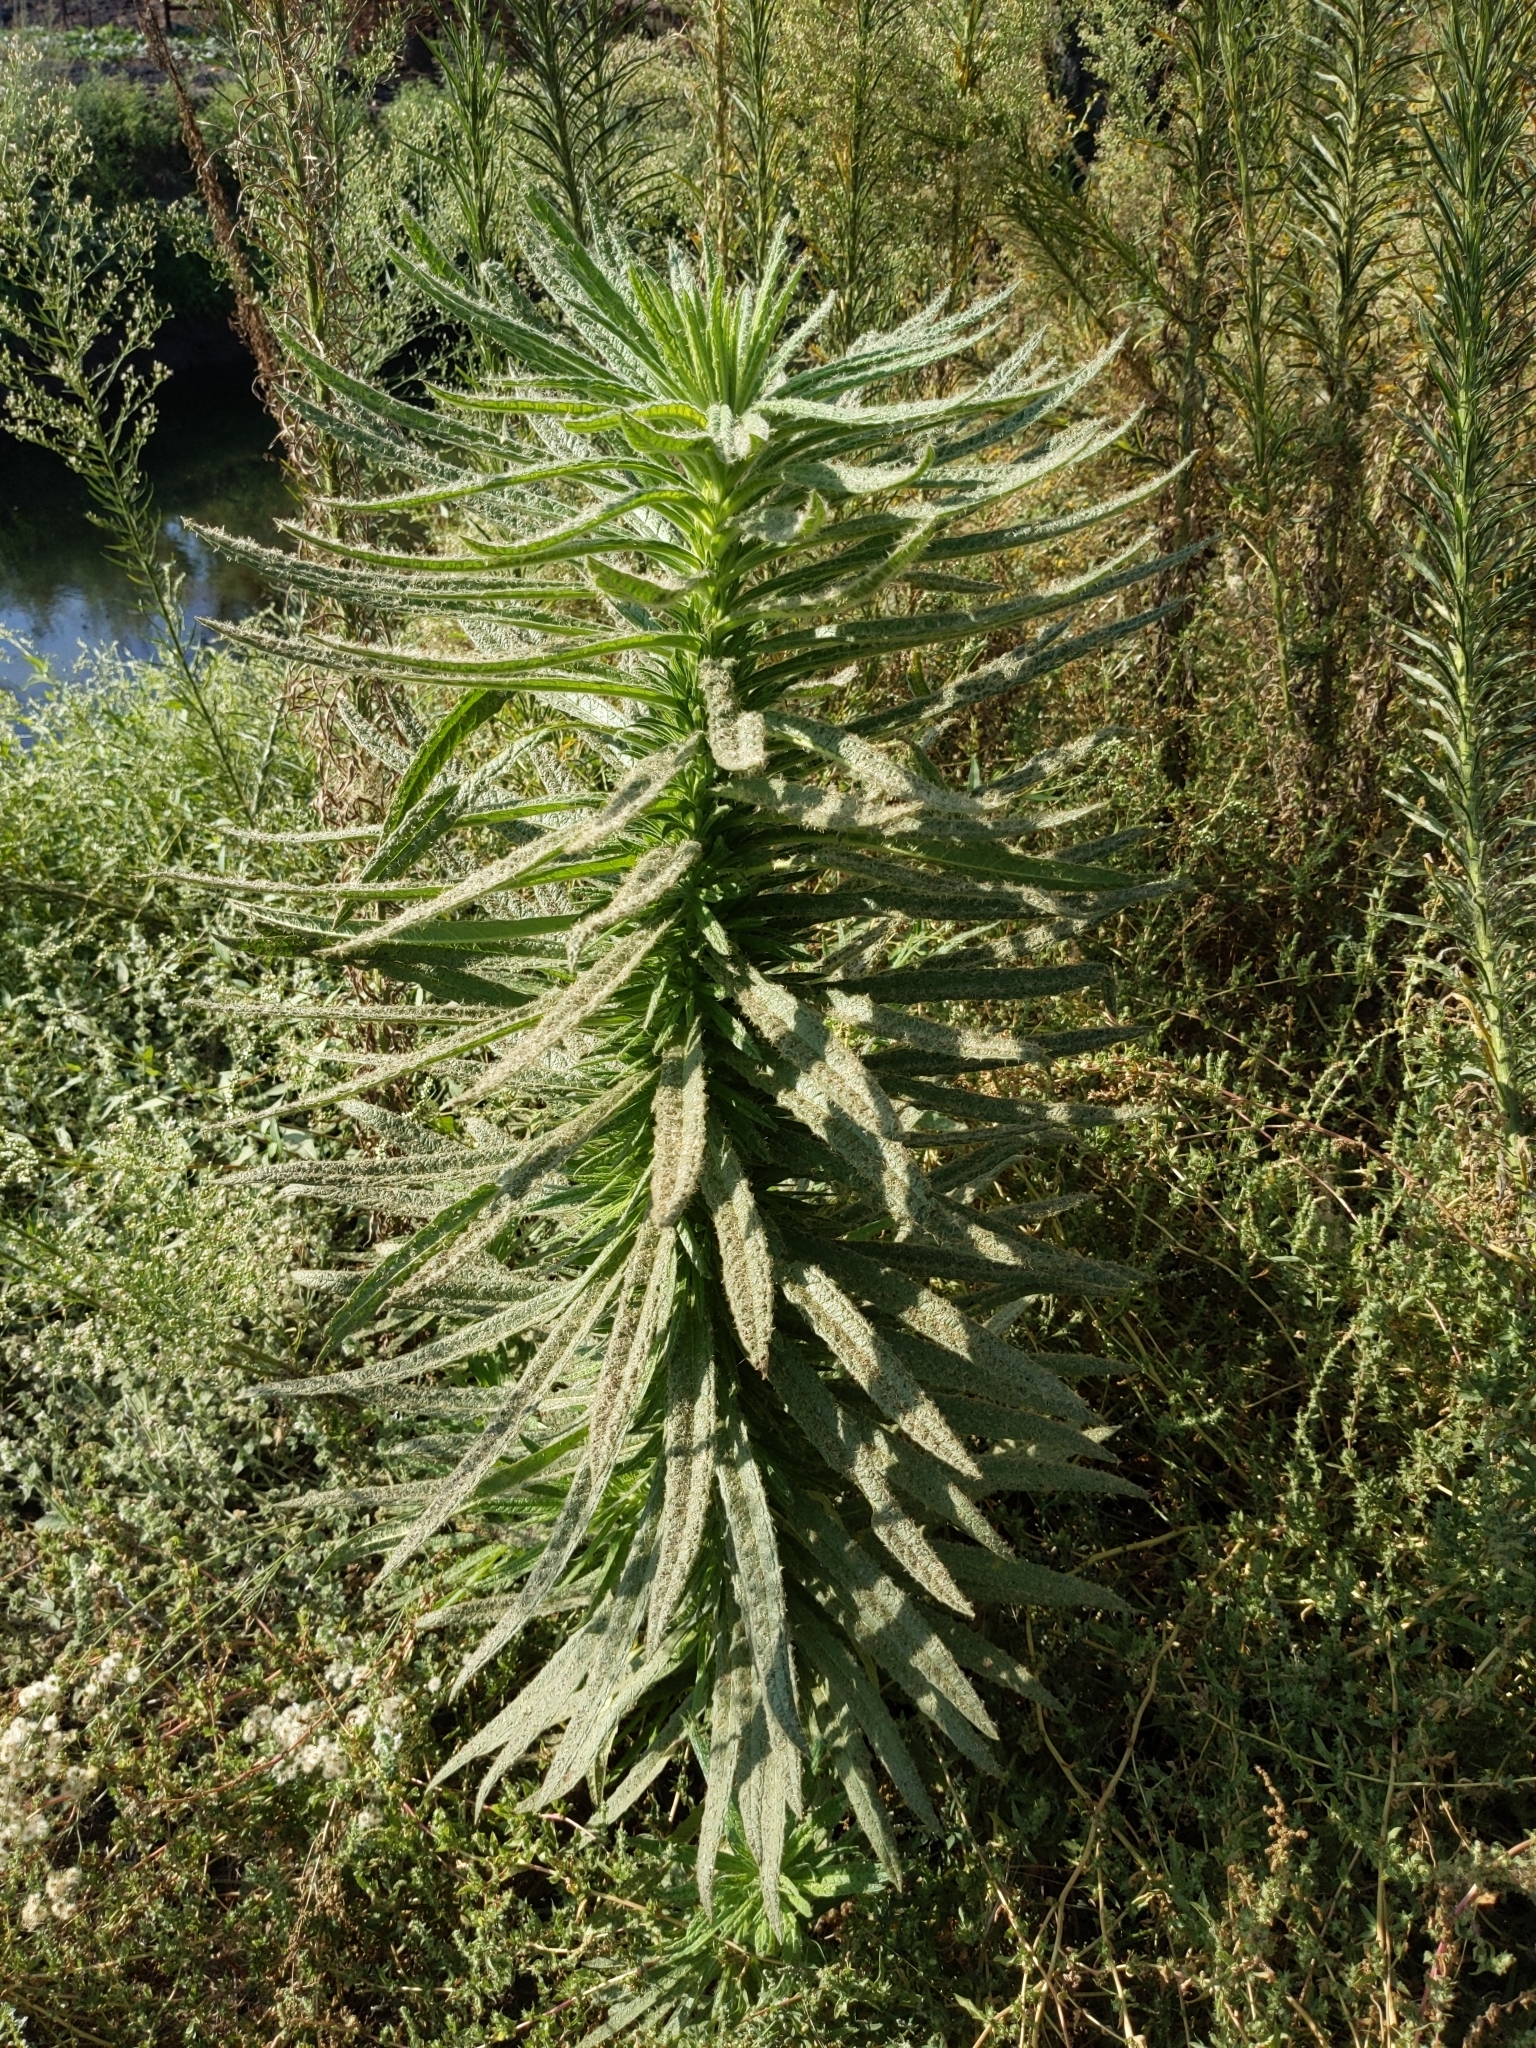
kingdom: Plantae
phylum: Tracheophyta
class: Magnoliopsida
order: Boraginales
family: Namaceae
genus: Turricula
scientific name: Turricula parryi
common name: Poodle-dog-bush
